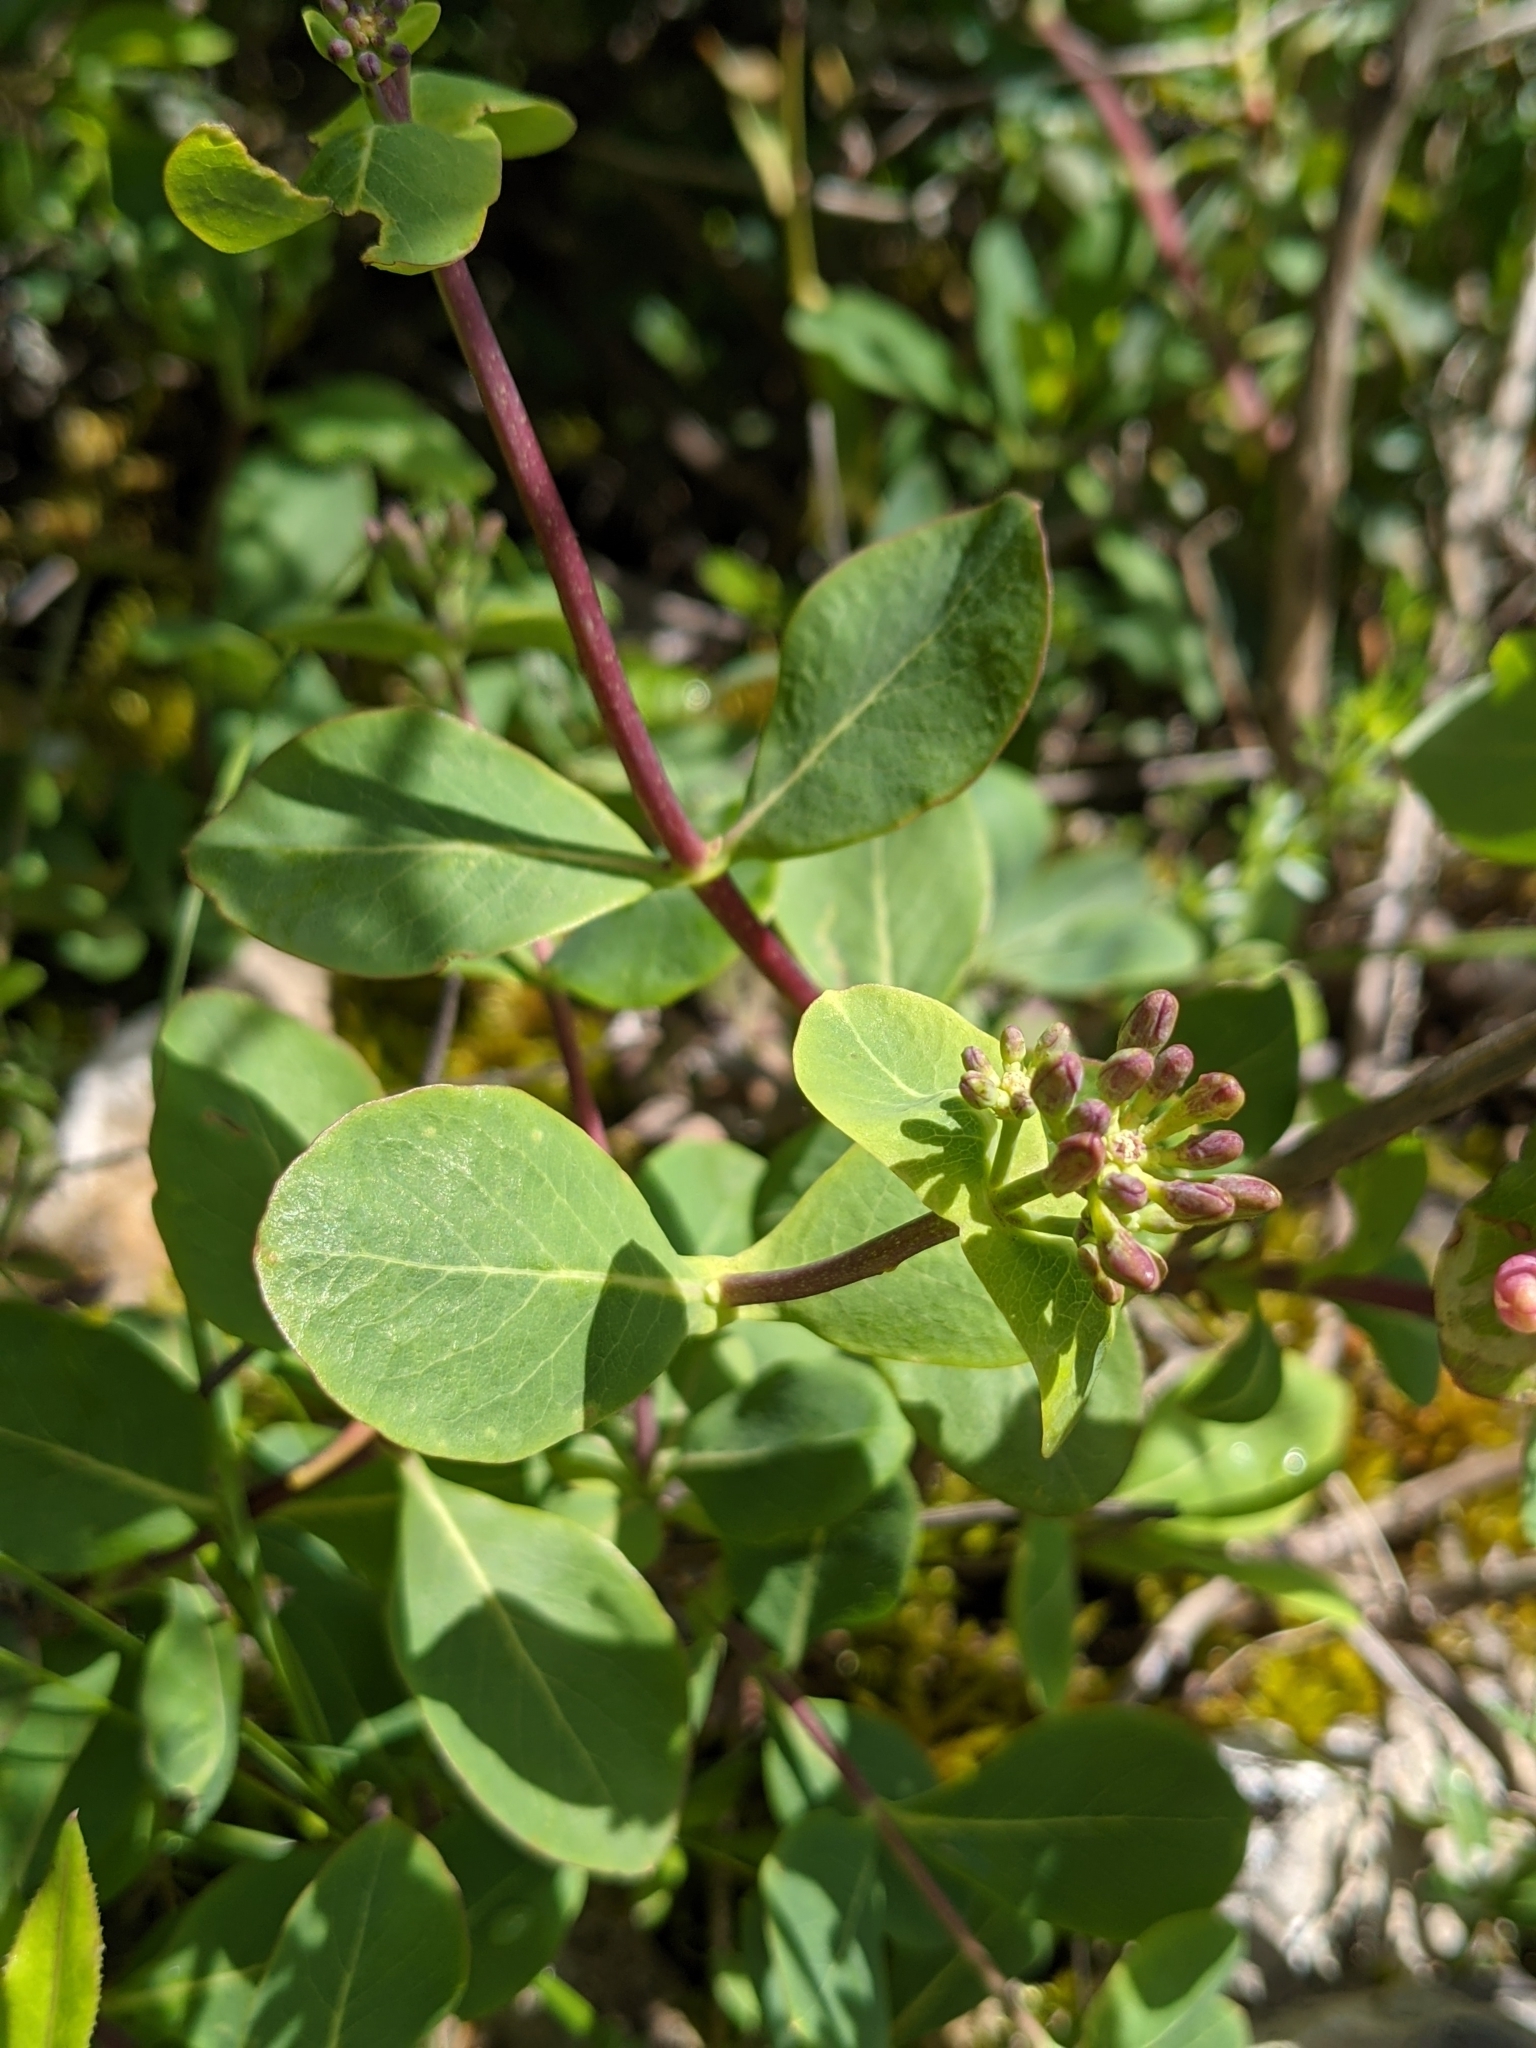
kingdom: Plantae
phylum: Tracheophyta
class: Magnoliopsida
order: Dipsacales
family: Caprifoliaceae
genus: Lonicera
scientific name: Lonicera etrusca
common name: Etruscan honeysuckle
